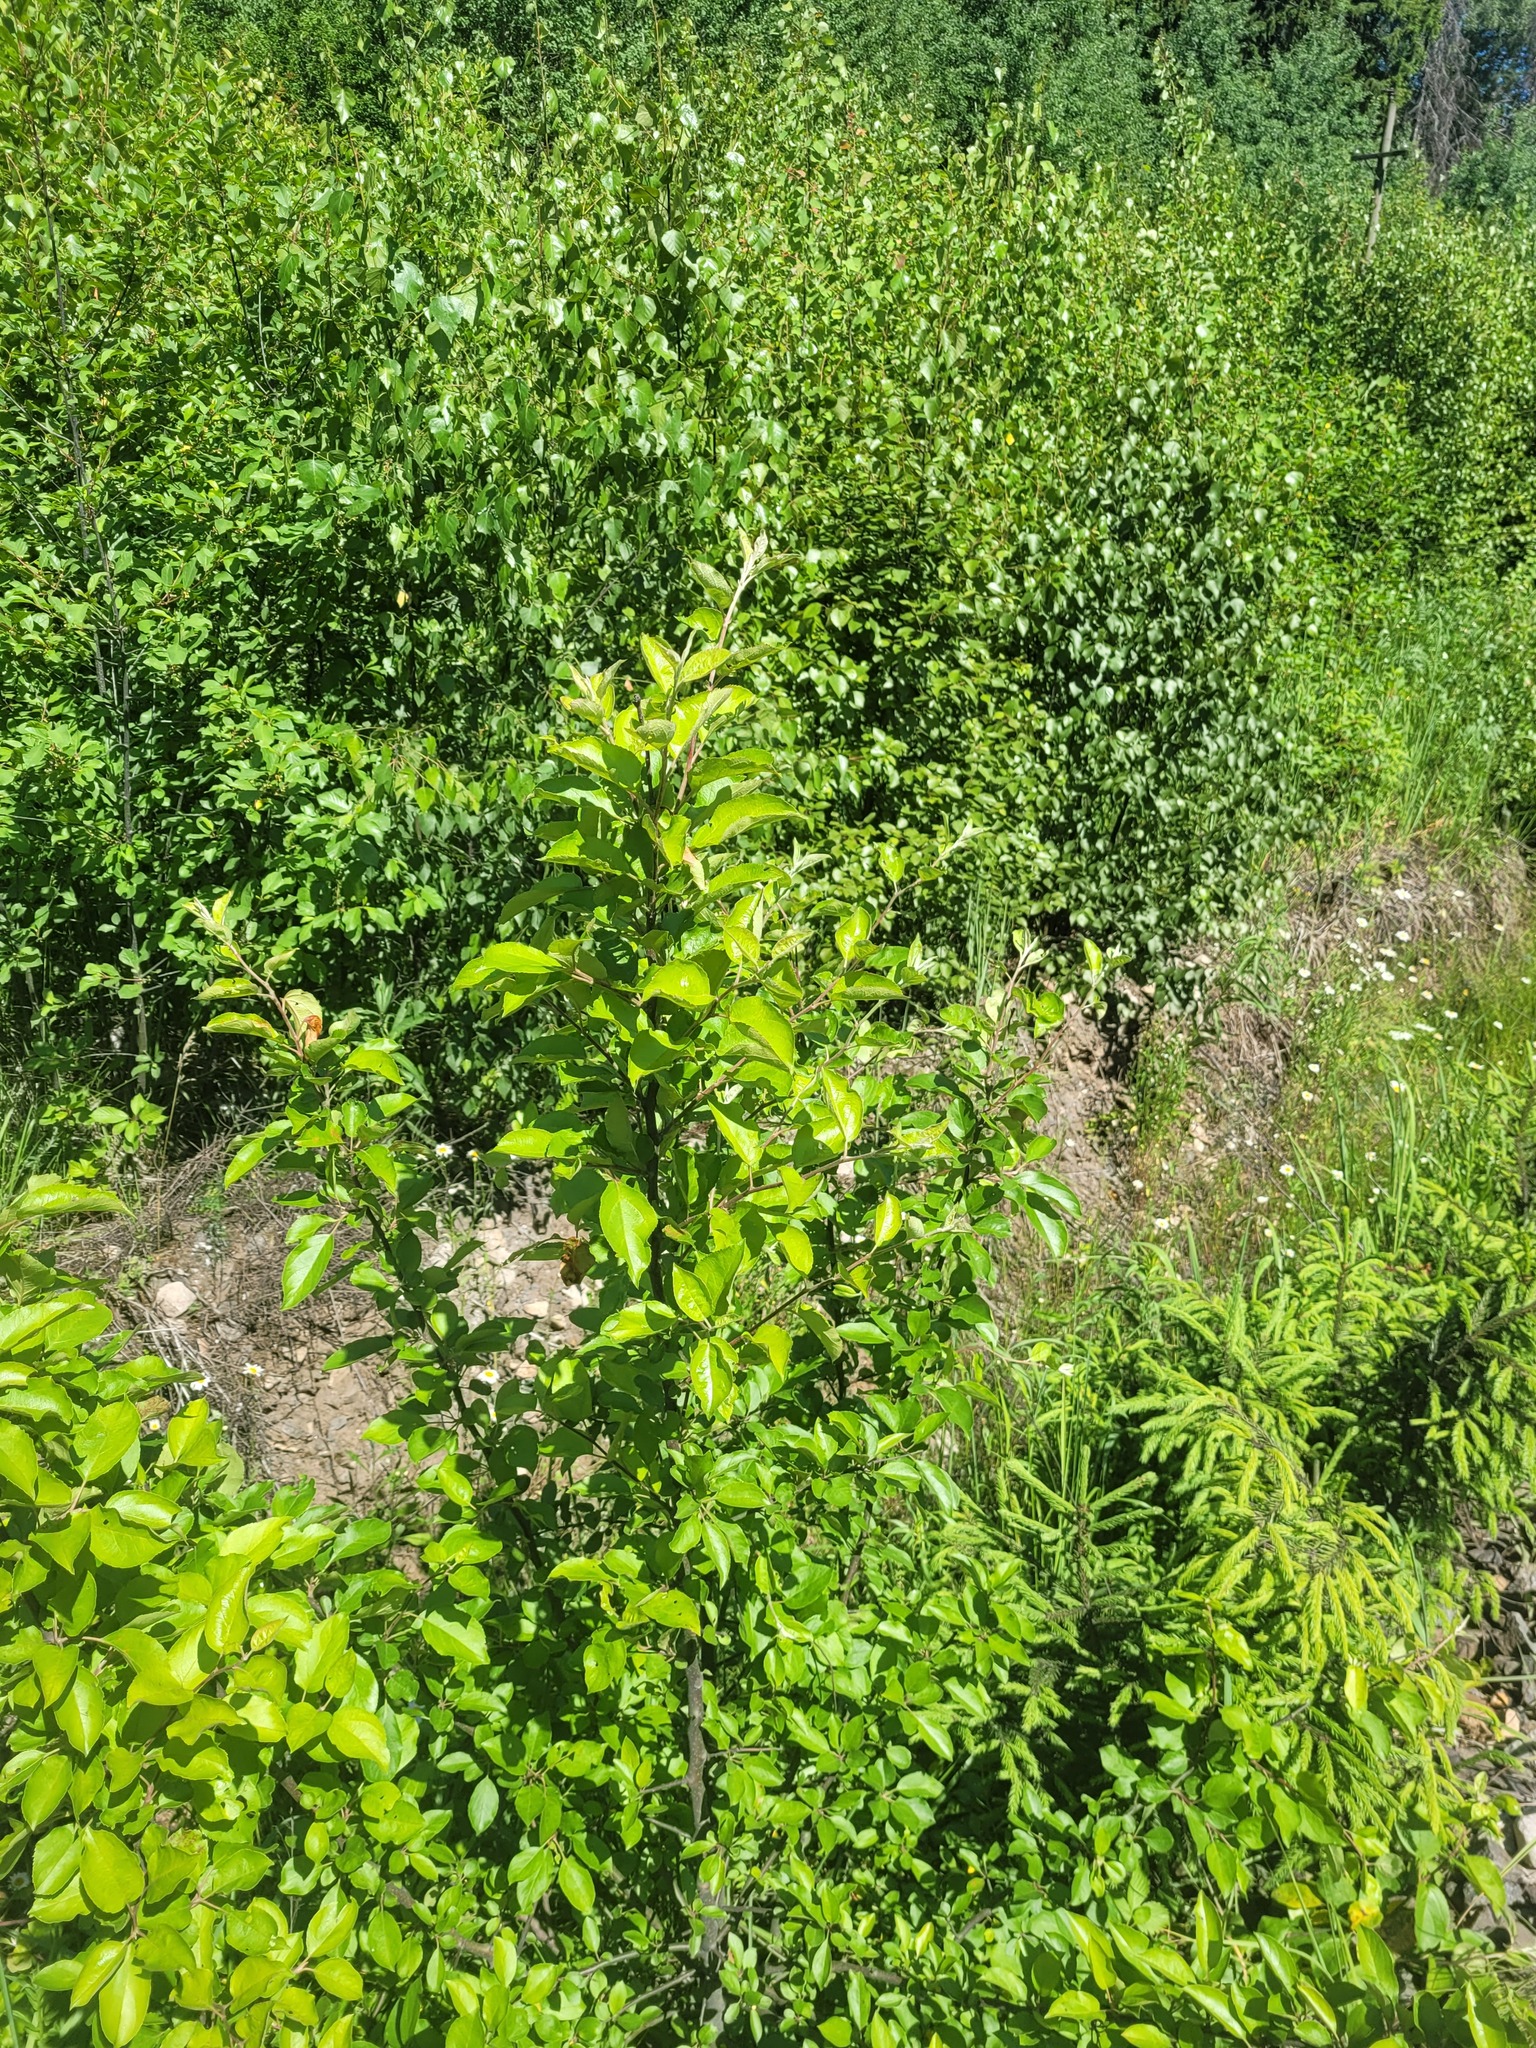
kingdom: Plantae
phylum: Tracheophyta
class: Magnoliopsida
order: Rosales
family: Rosaceae
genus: Malus
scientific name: Malus domestica
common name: Apple
